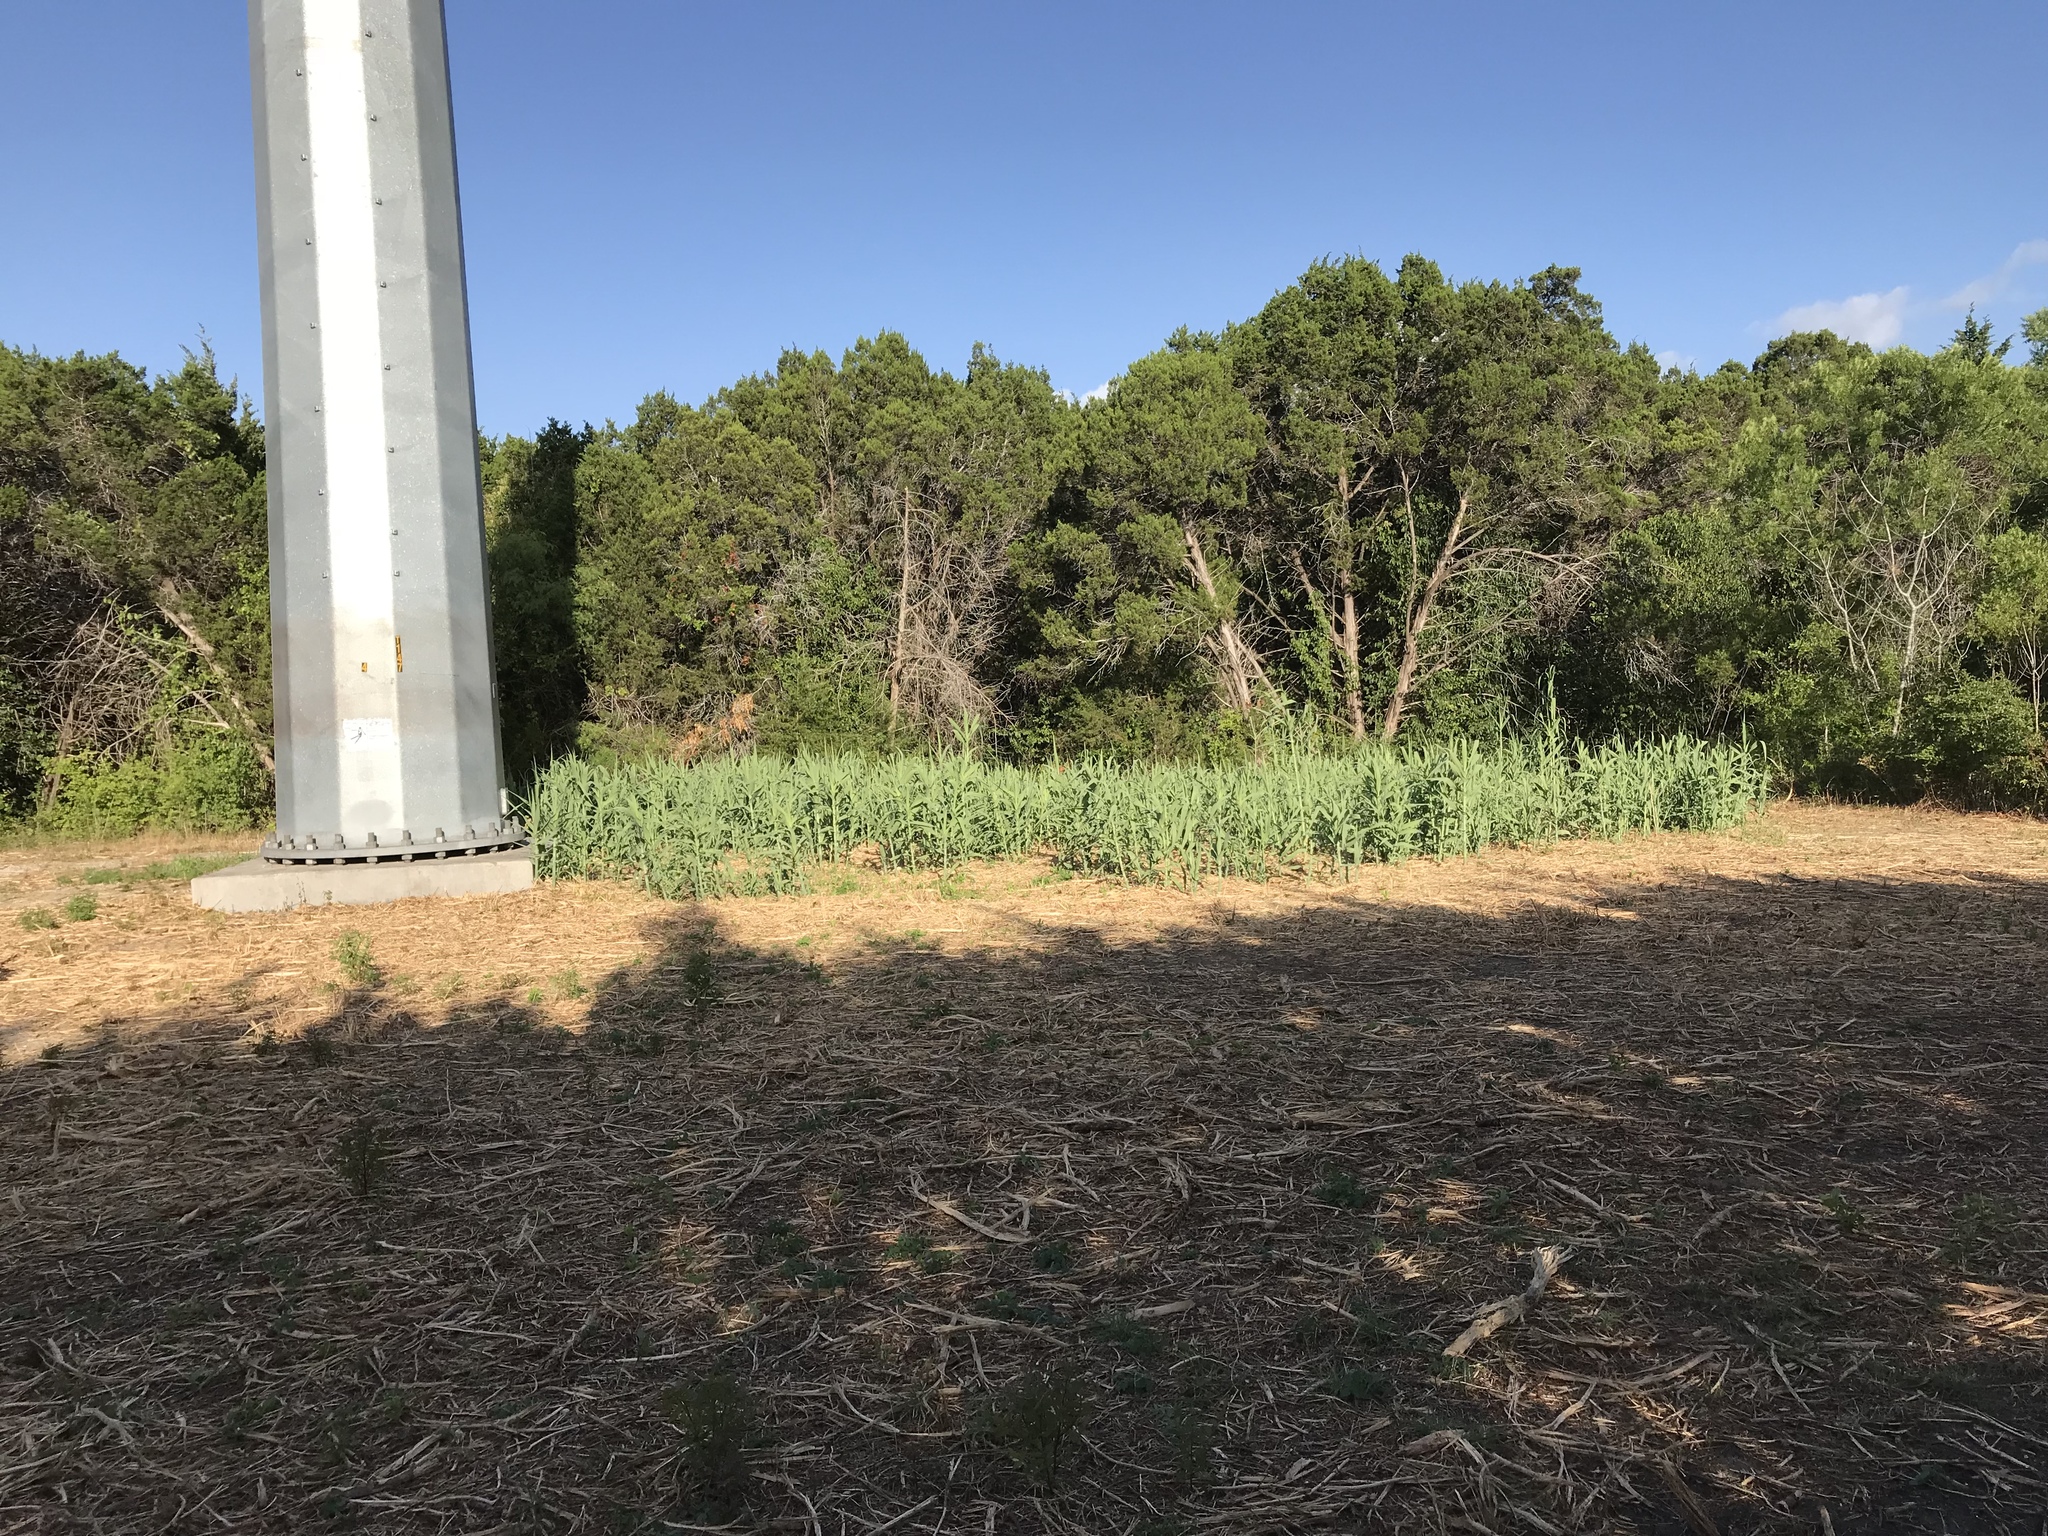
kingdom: Plantae
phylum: Tracheophyta
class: Liliopsida
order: Poales
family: Poaceae
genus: Arundo
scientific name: Arundo donax
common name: Giant reed
